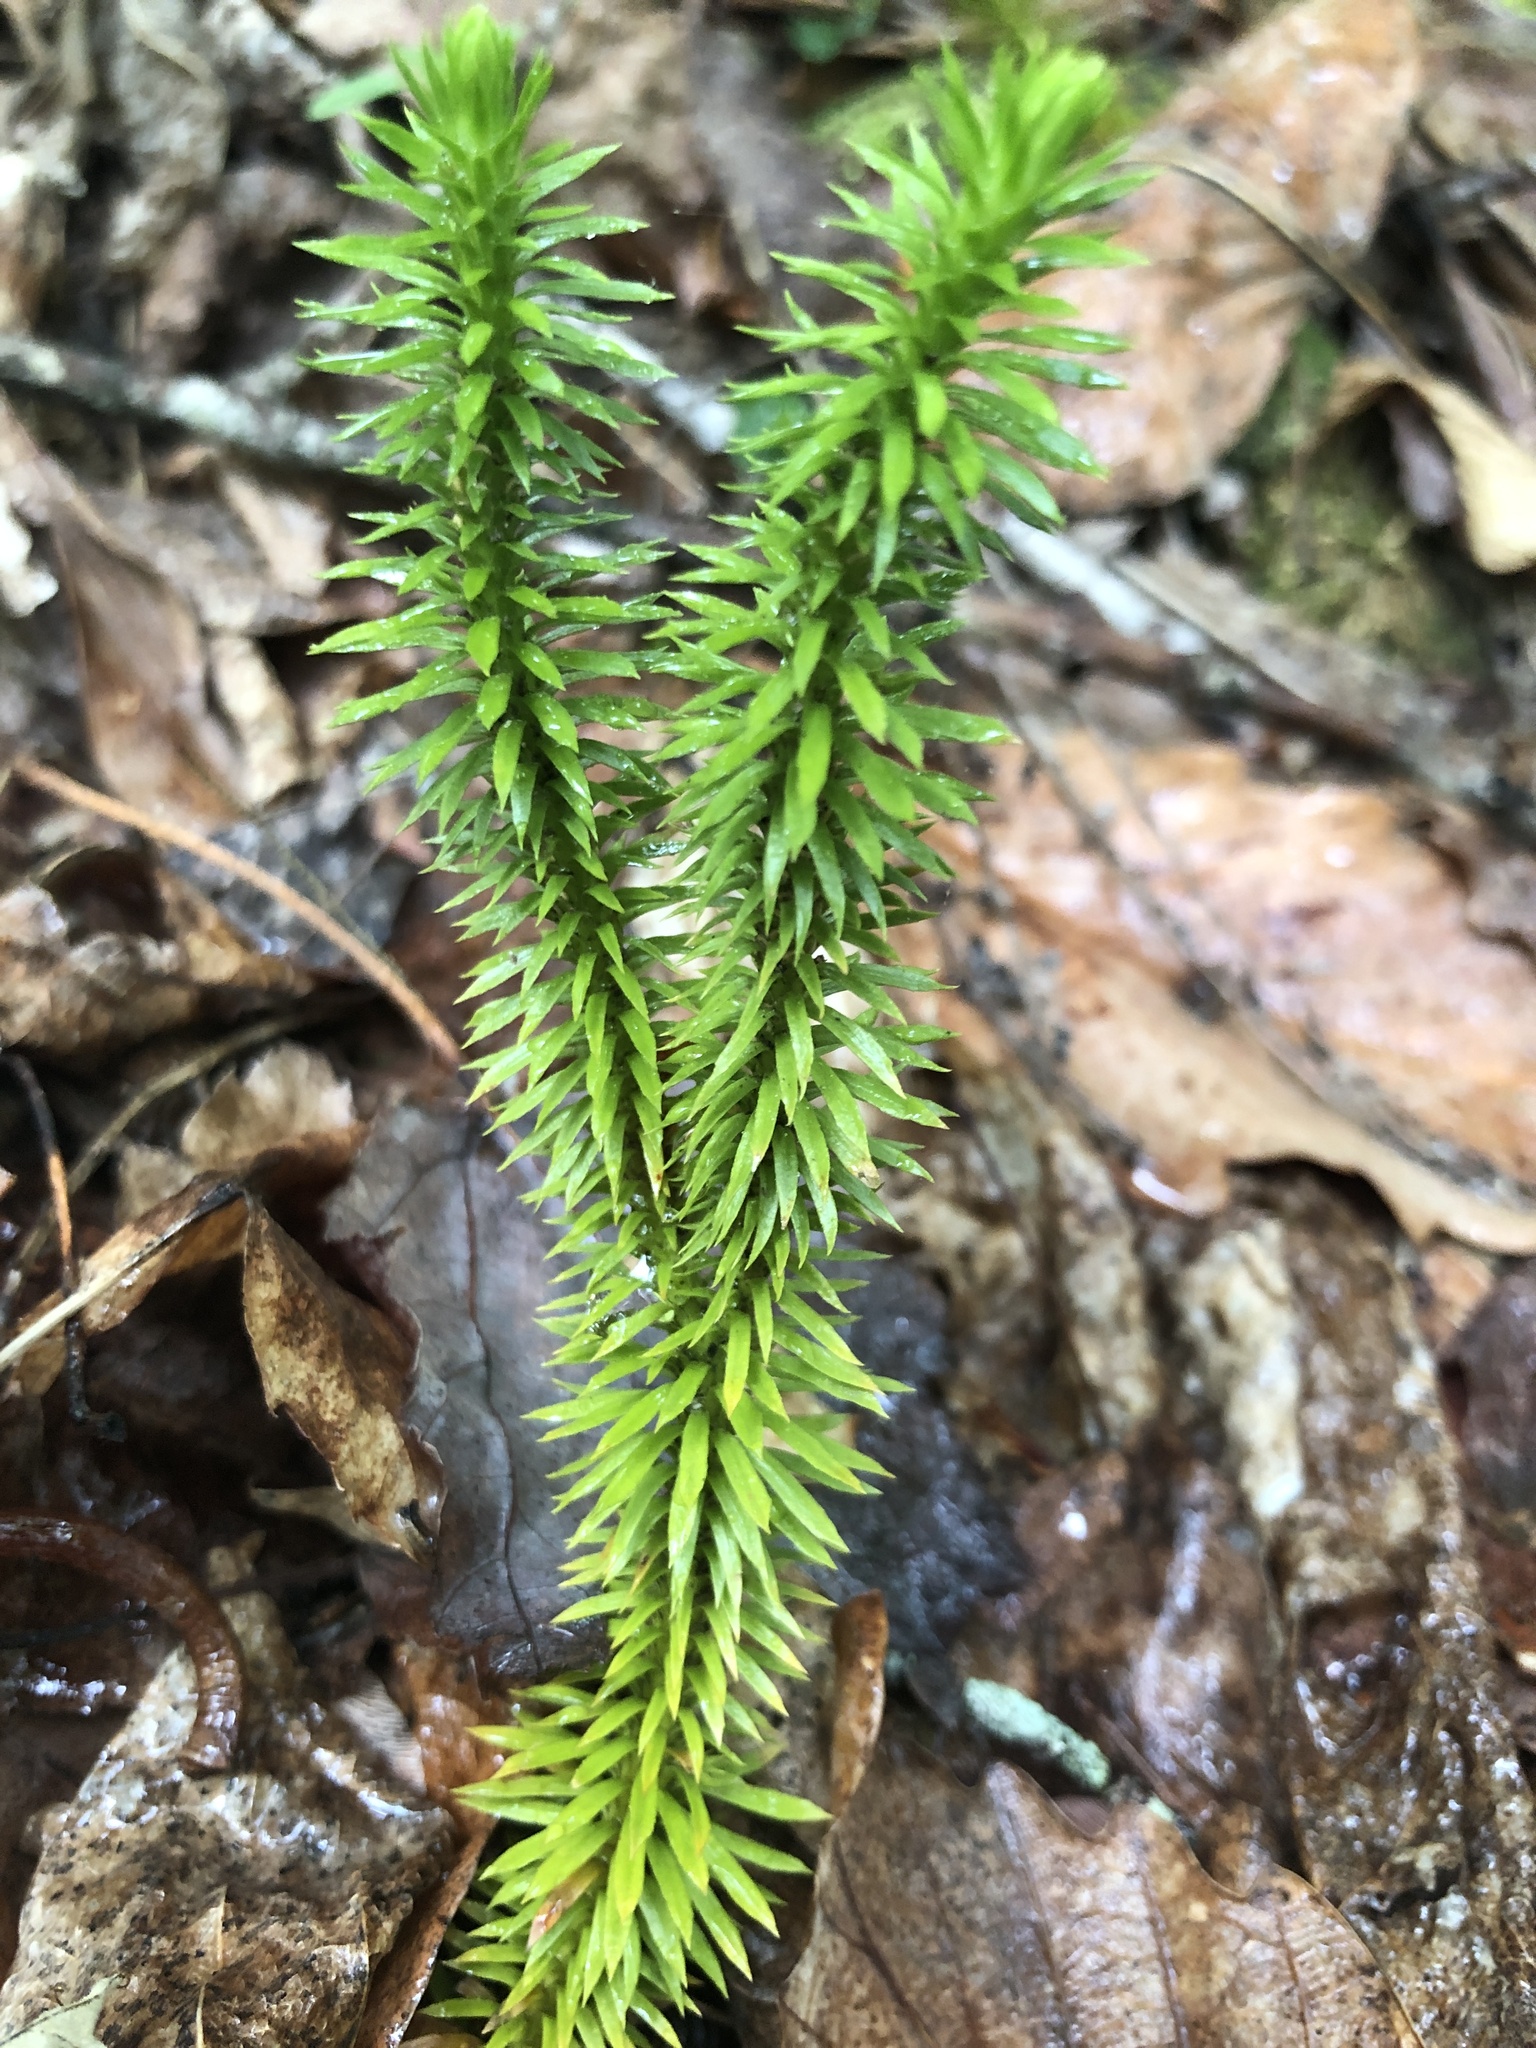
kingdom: Plantae
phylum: Tracheophyta
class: Lycopodiopsida
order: Lycopodiales
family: Lycopodiaceae
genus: Huperzia
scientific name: Huperzia lucidula
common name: Shining clubmoss
